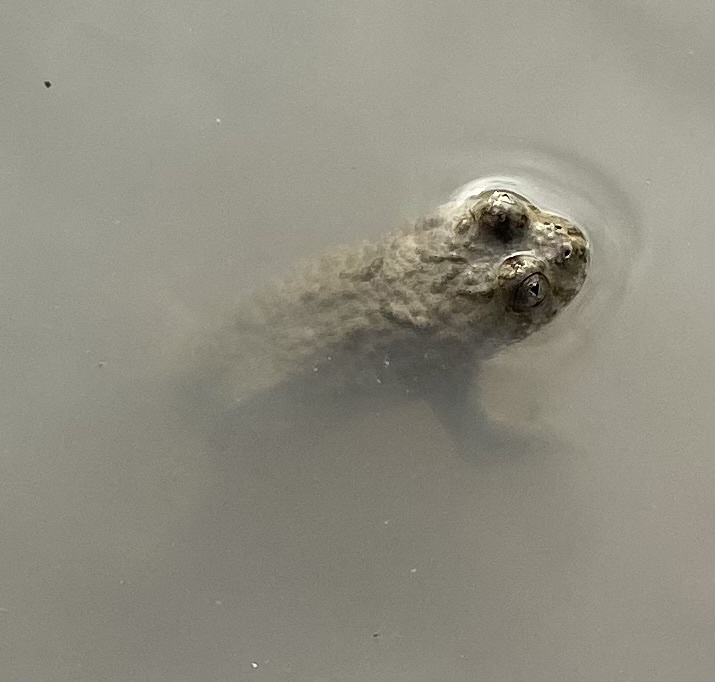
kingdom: Animalia
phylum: Chordata
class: Amphibia
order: Anura
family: Bombinatoridae
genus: Bombina
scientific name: Bombina variegata
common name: Yellow-bellied toad
